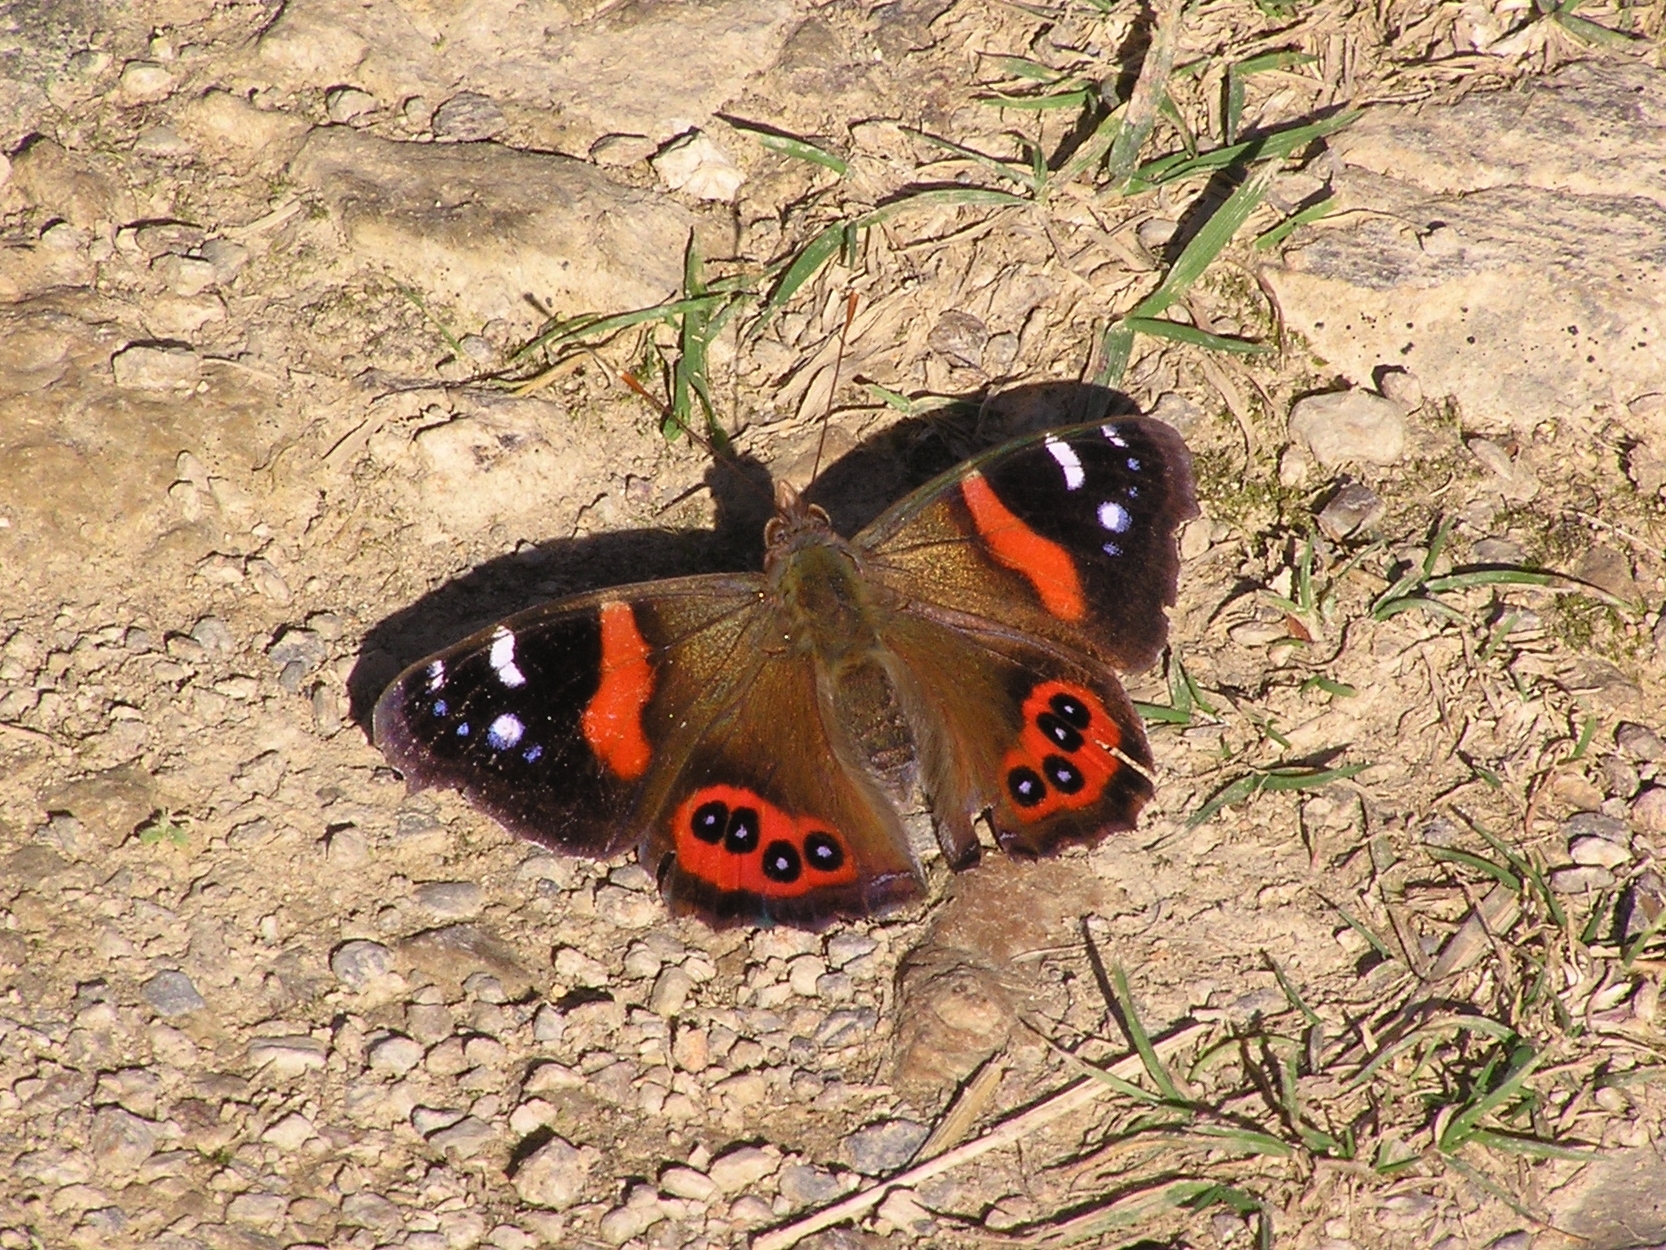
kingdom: Animalia
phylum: Arthropoda
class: Insecta
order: Lepidoptera
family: Nymphalidae
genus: Vanessa
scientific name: Vanessa gonerilla
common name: New zealand red admiral
